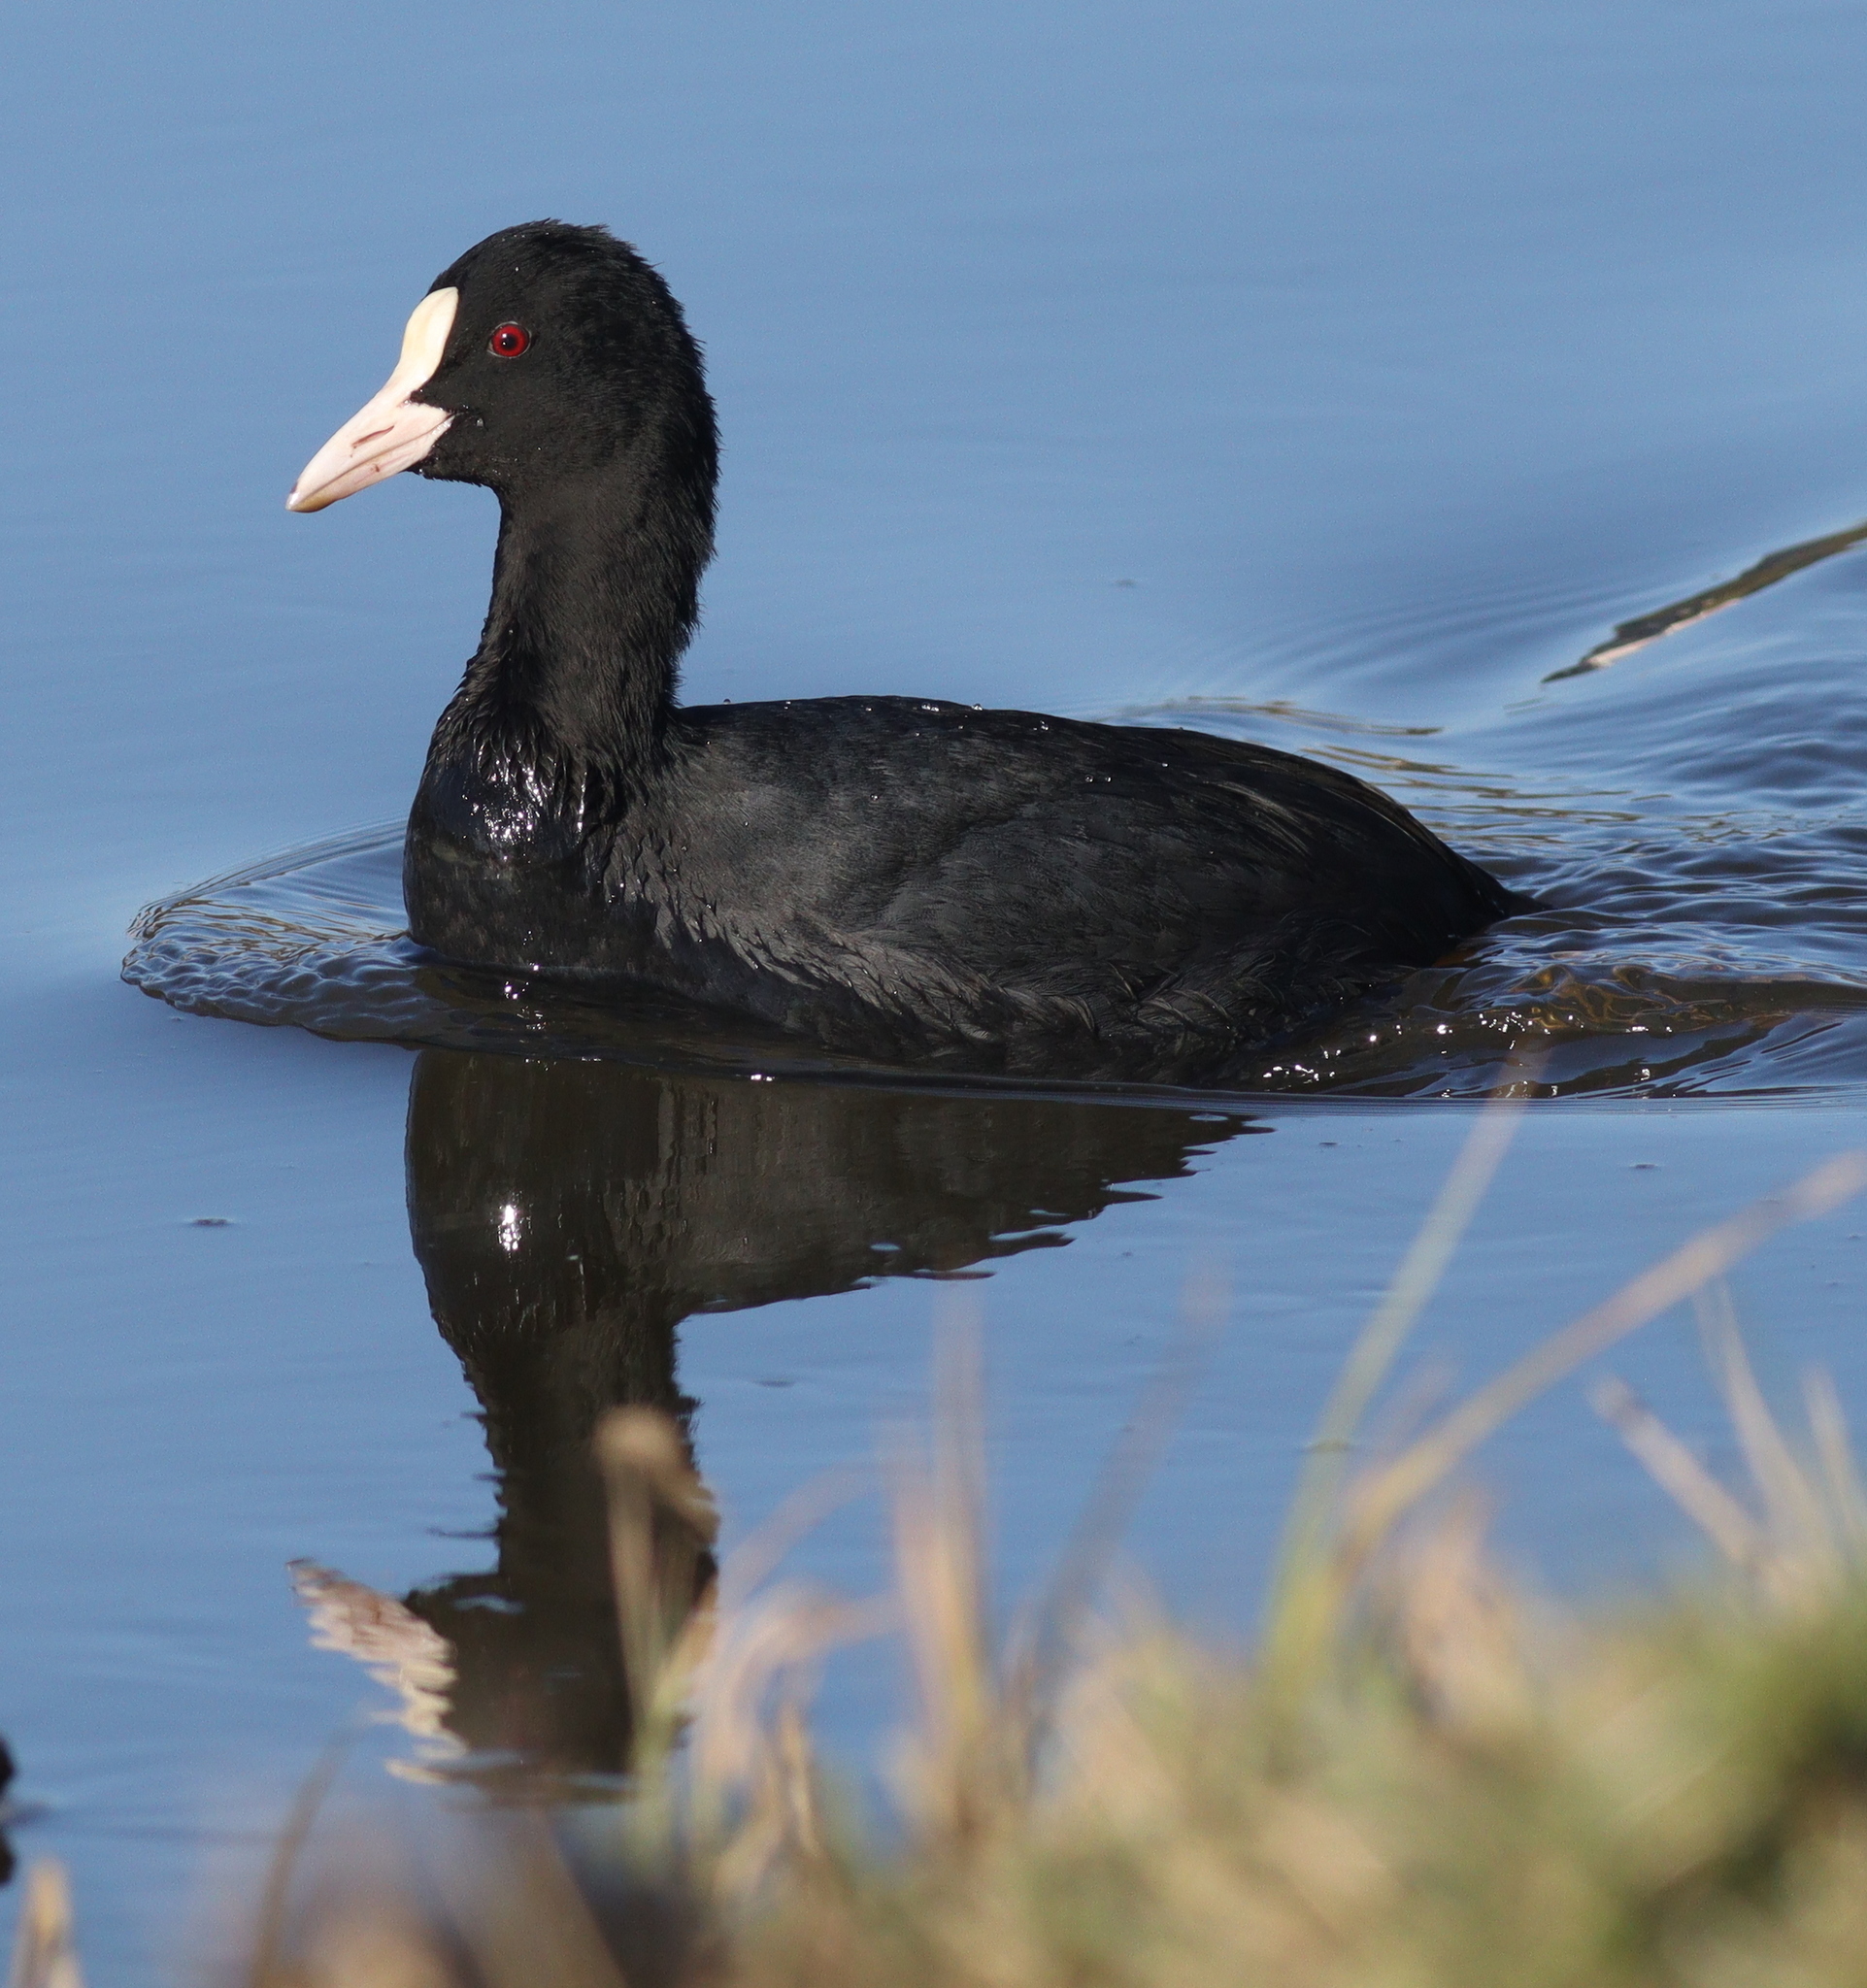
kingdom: Animalia
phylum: Chordata
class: Aves
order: Gruiformes
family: Rallidae
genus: Fulica
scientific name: Fulica atra
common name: Eurasian coot
